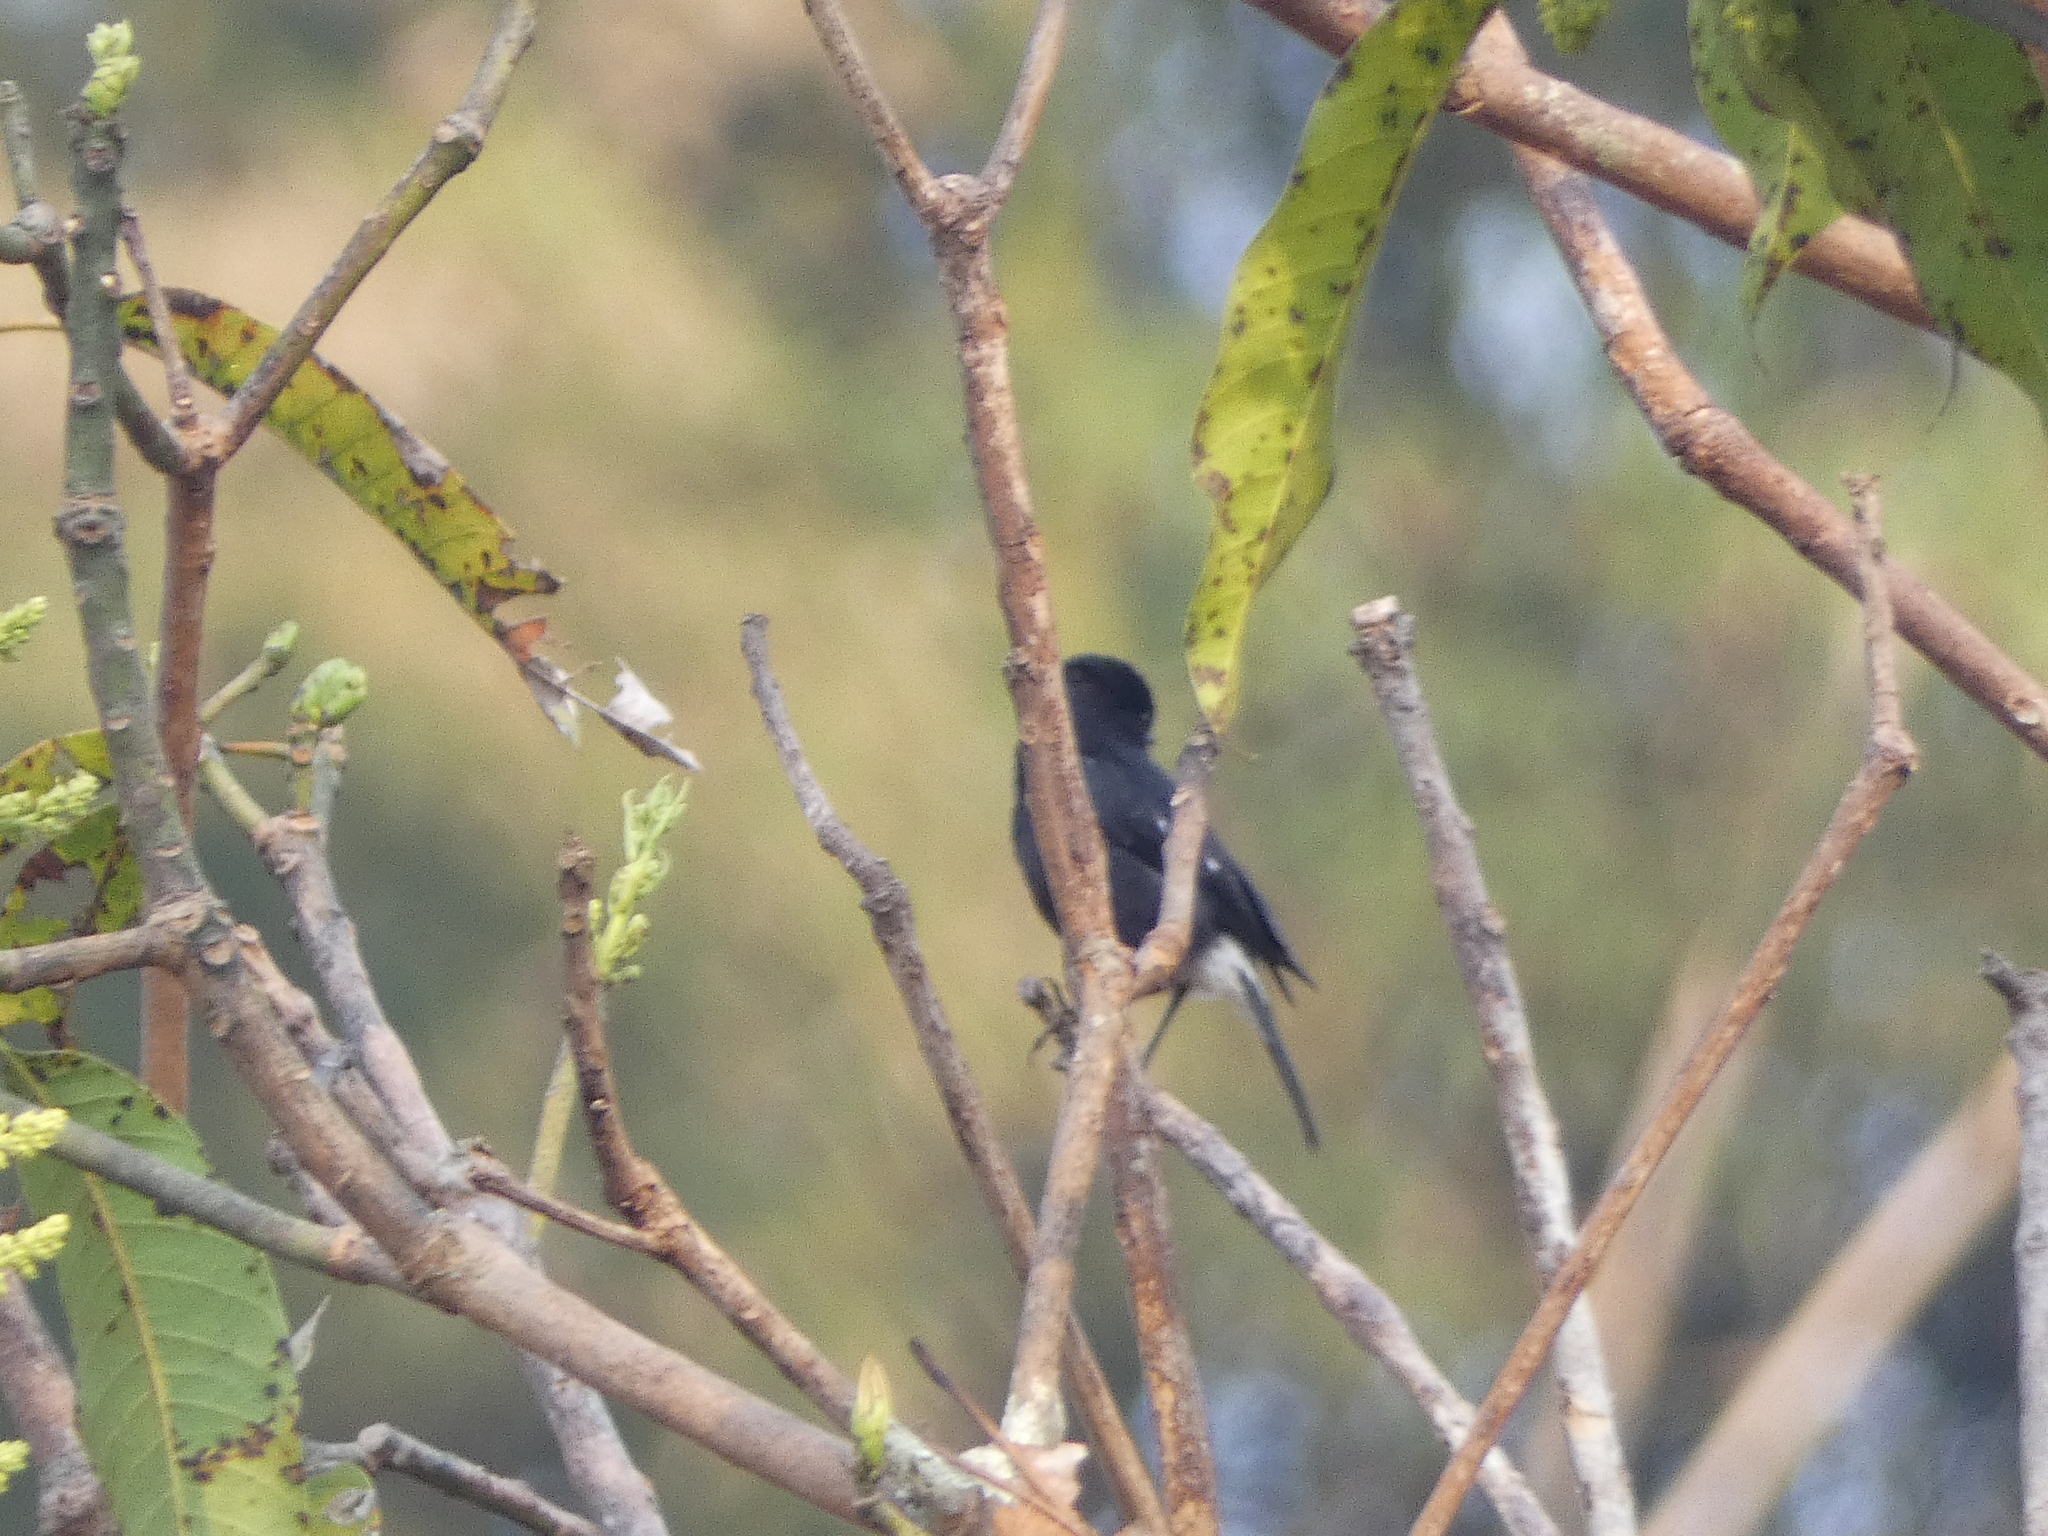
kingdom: Animalia
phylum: Chordata
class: Aves
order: Passeriformes
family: Muscicapidae
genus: Saxicola
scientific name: Saxicola caprata
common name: Pied bush chat
